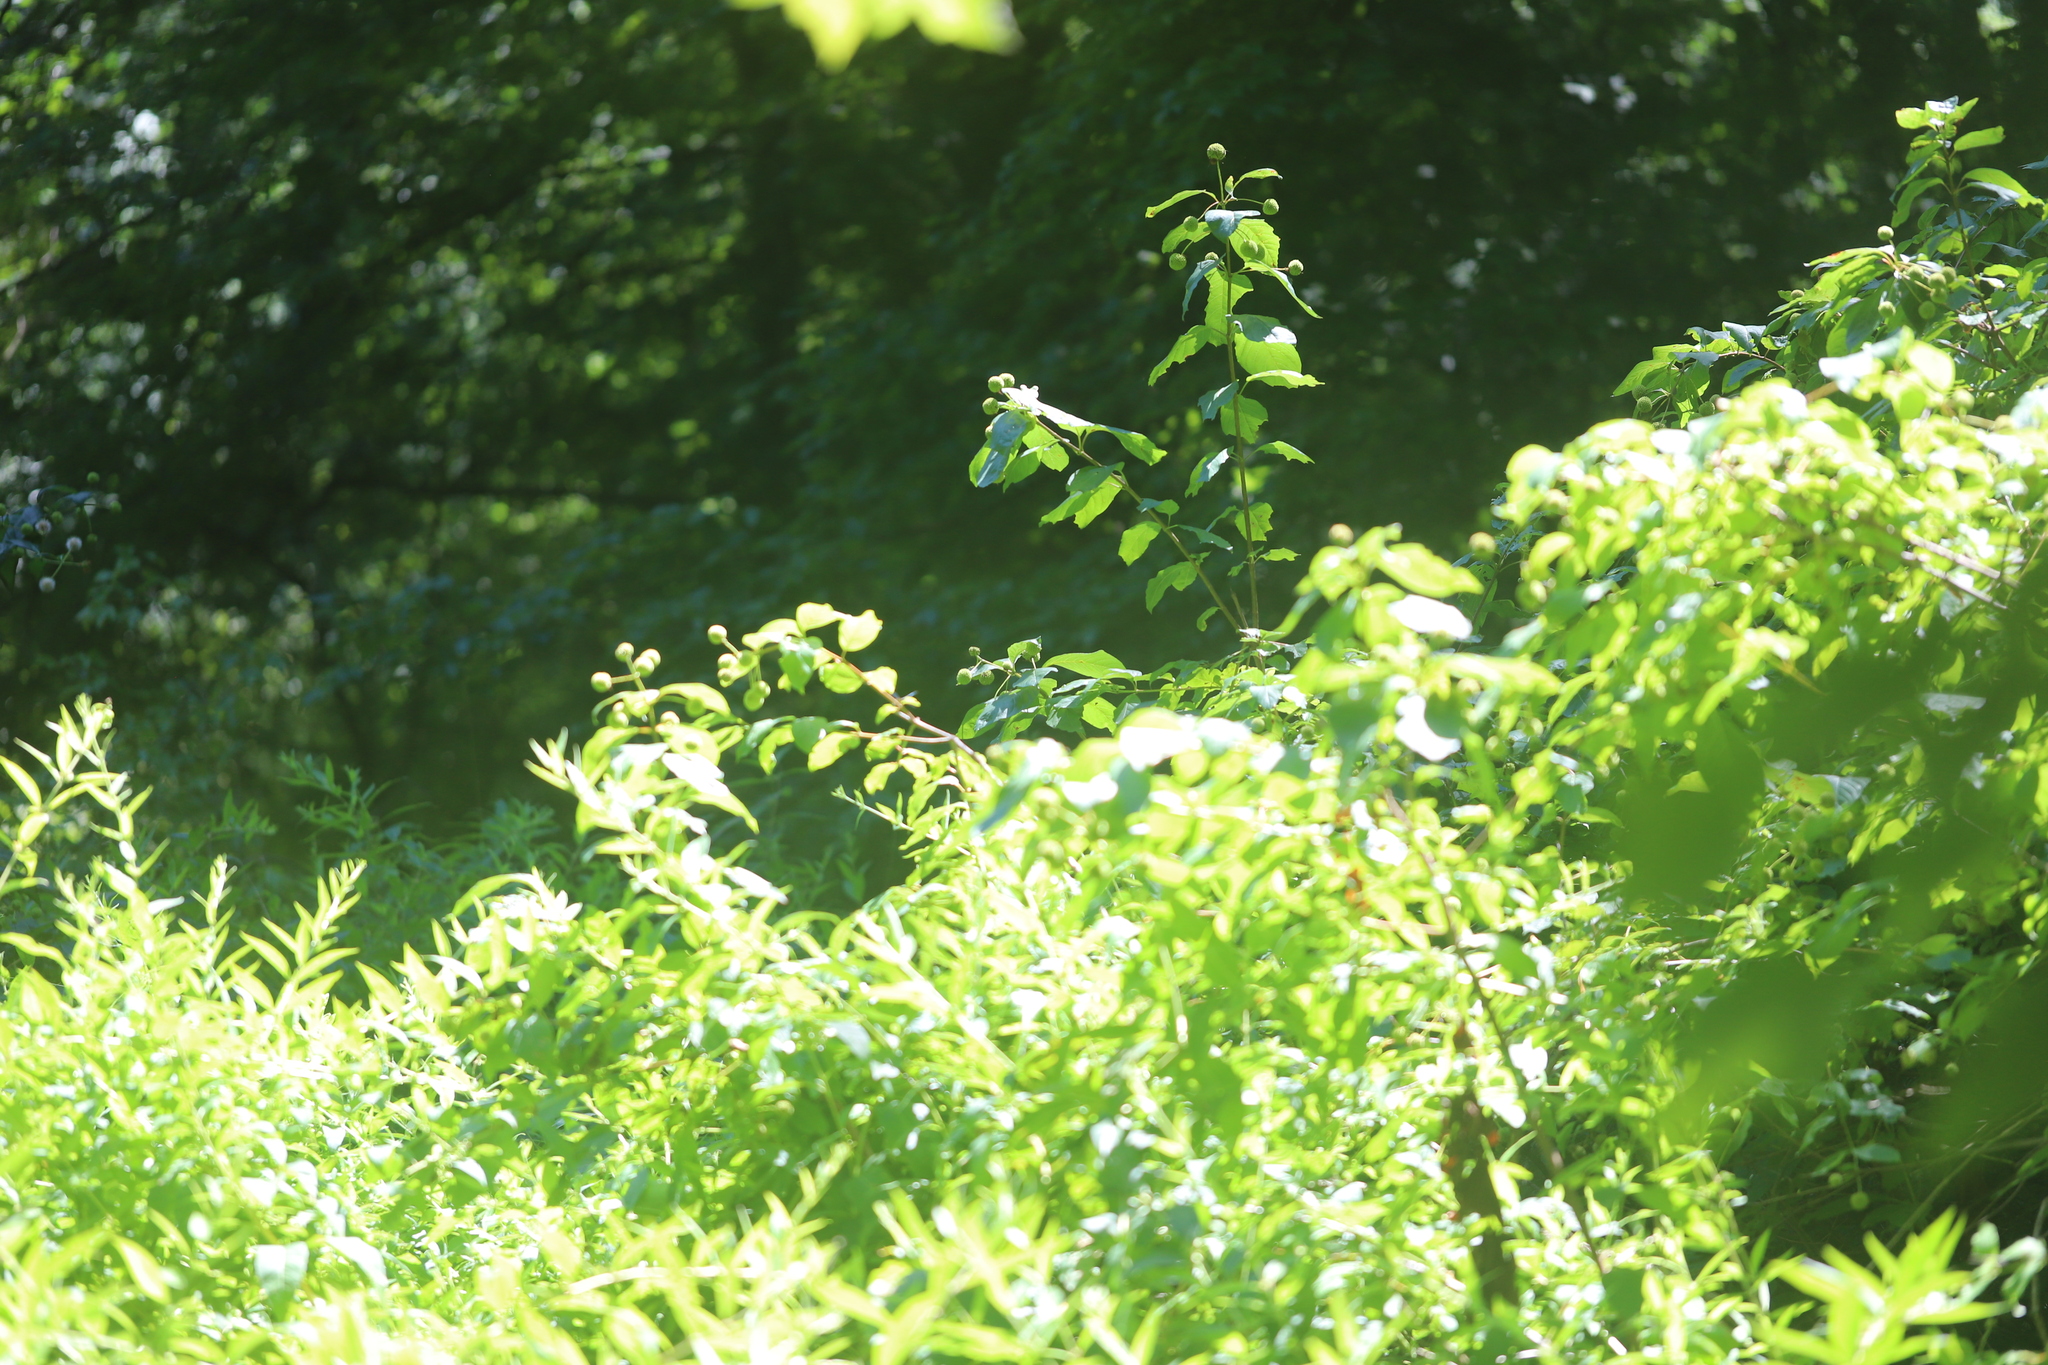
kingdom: Plantae
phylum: Tracheophyta
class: Magnoliopsida
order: Gentianales
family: Rubiaceae
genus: Cephalanthus
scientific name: Cephalanthus occidentalis
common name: Button-willow
